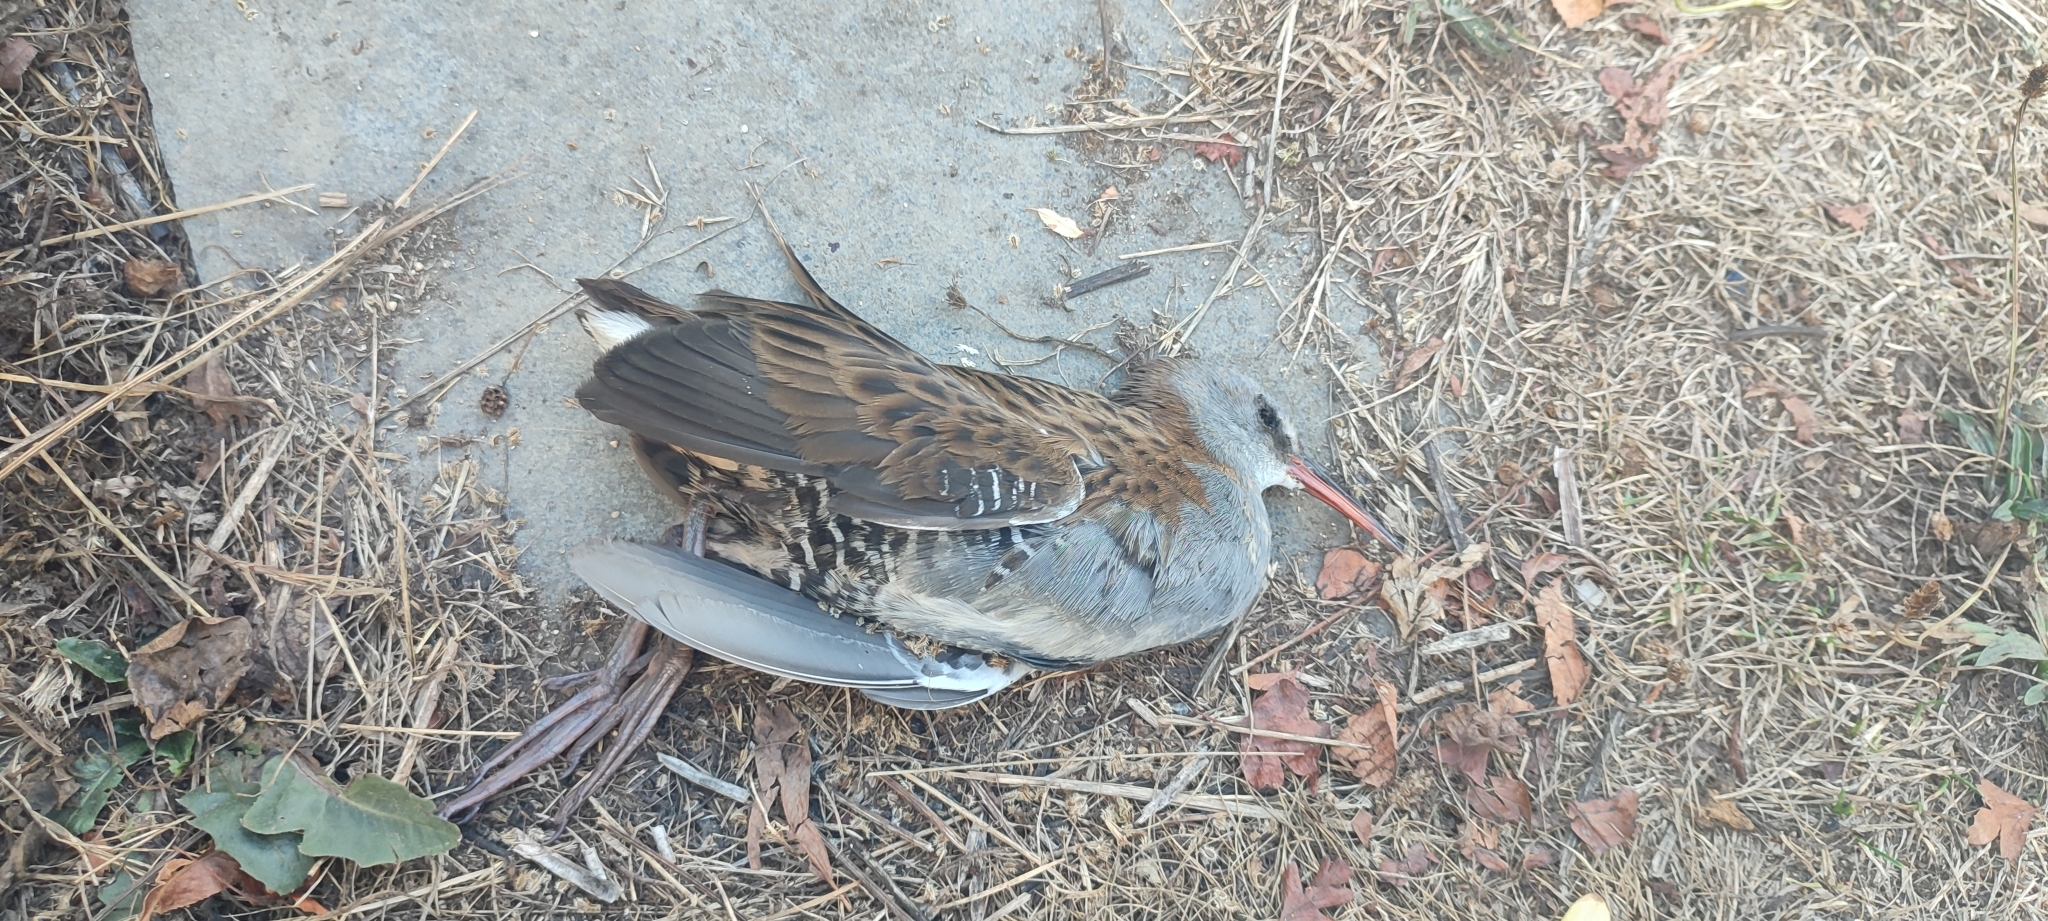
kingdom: Animalia
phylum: Chordata
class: Aves
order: Gruiformes
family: Rallidae
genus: Rallus
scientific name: Rallus aquaticus
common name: Water rail
